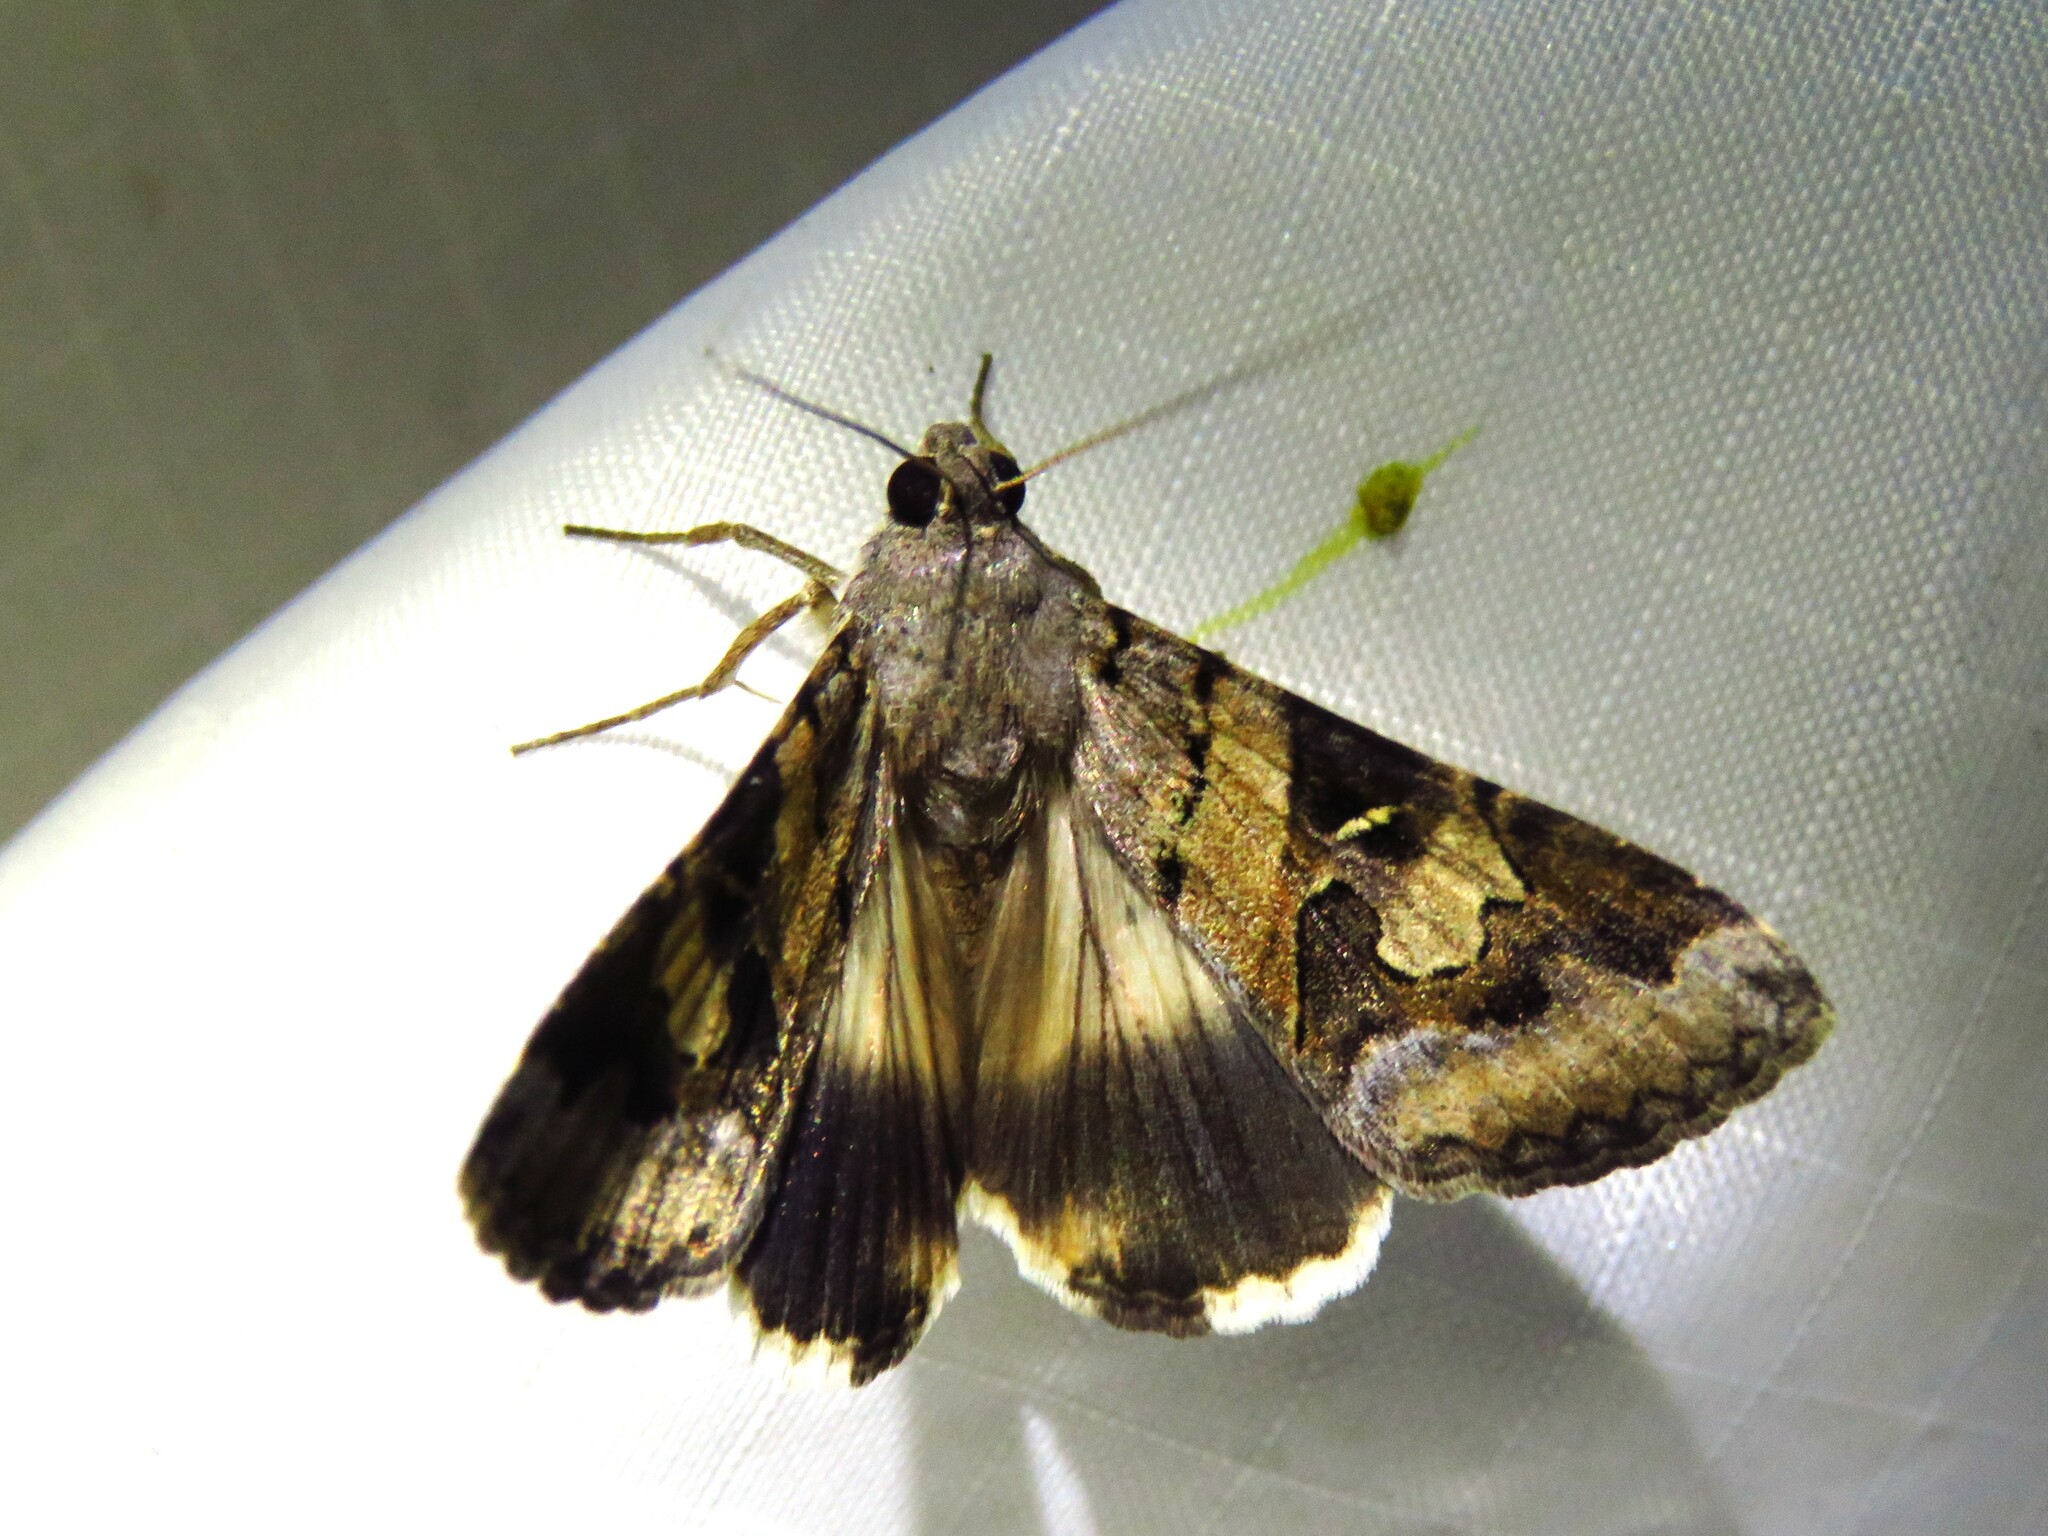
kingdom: Animalia
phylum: Arthropoda
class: Insecta
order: Lepidoptera
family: Erebidae
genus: Melipotis
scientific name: Melipotis indomita
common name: Moth
